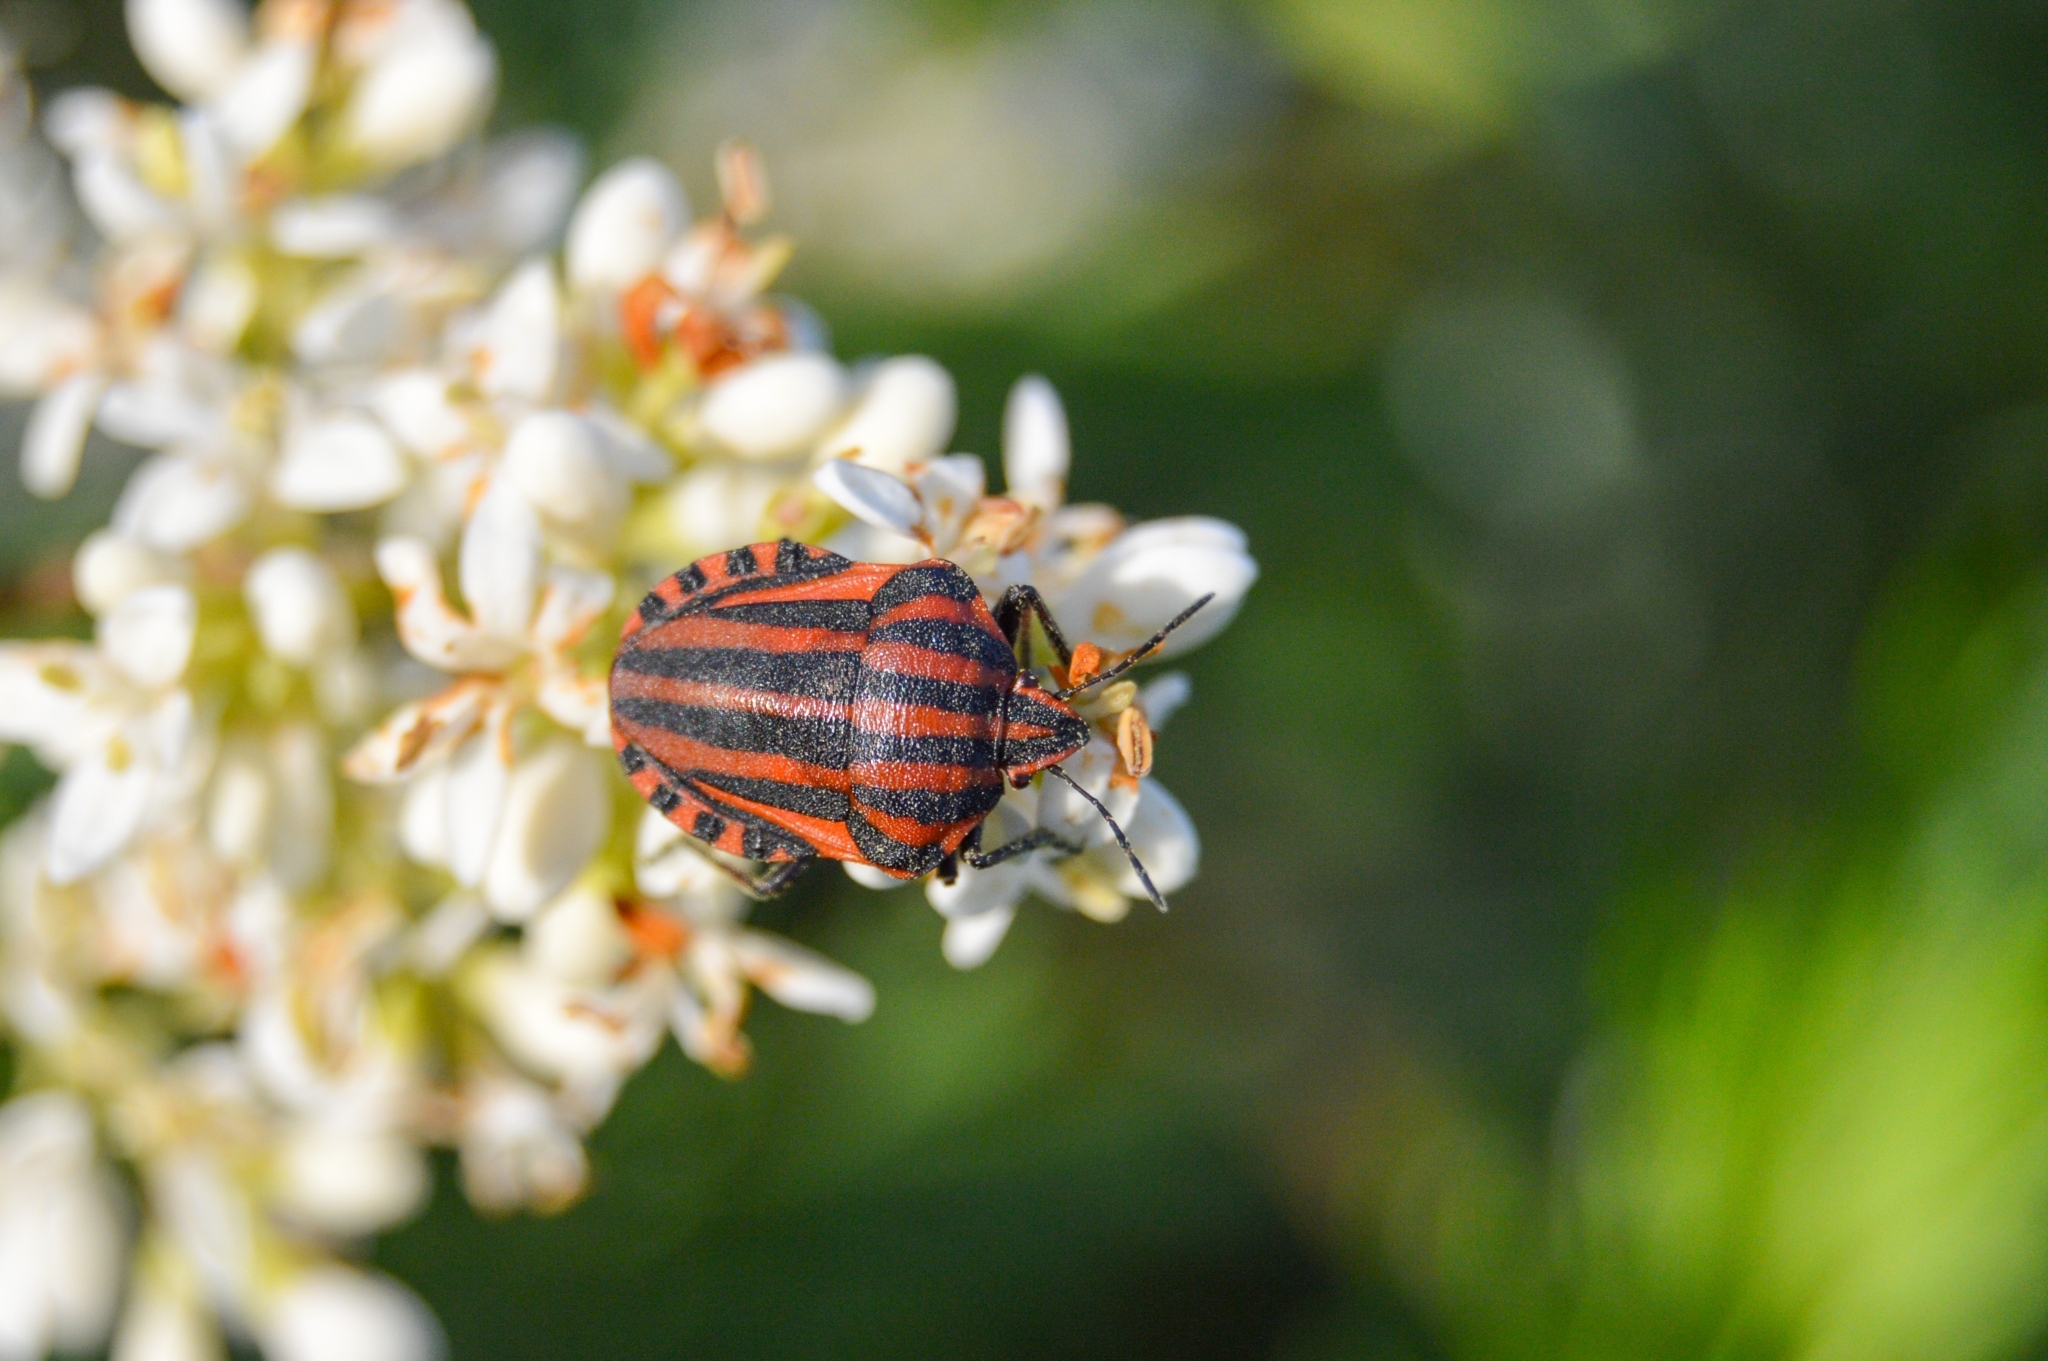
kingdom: Animalia
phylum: Arthropoda
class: Insecta
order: Hemiptera
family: Pentatomidae
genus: Graphosoma
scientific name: Graphosoma italicum
